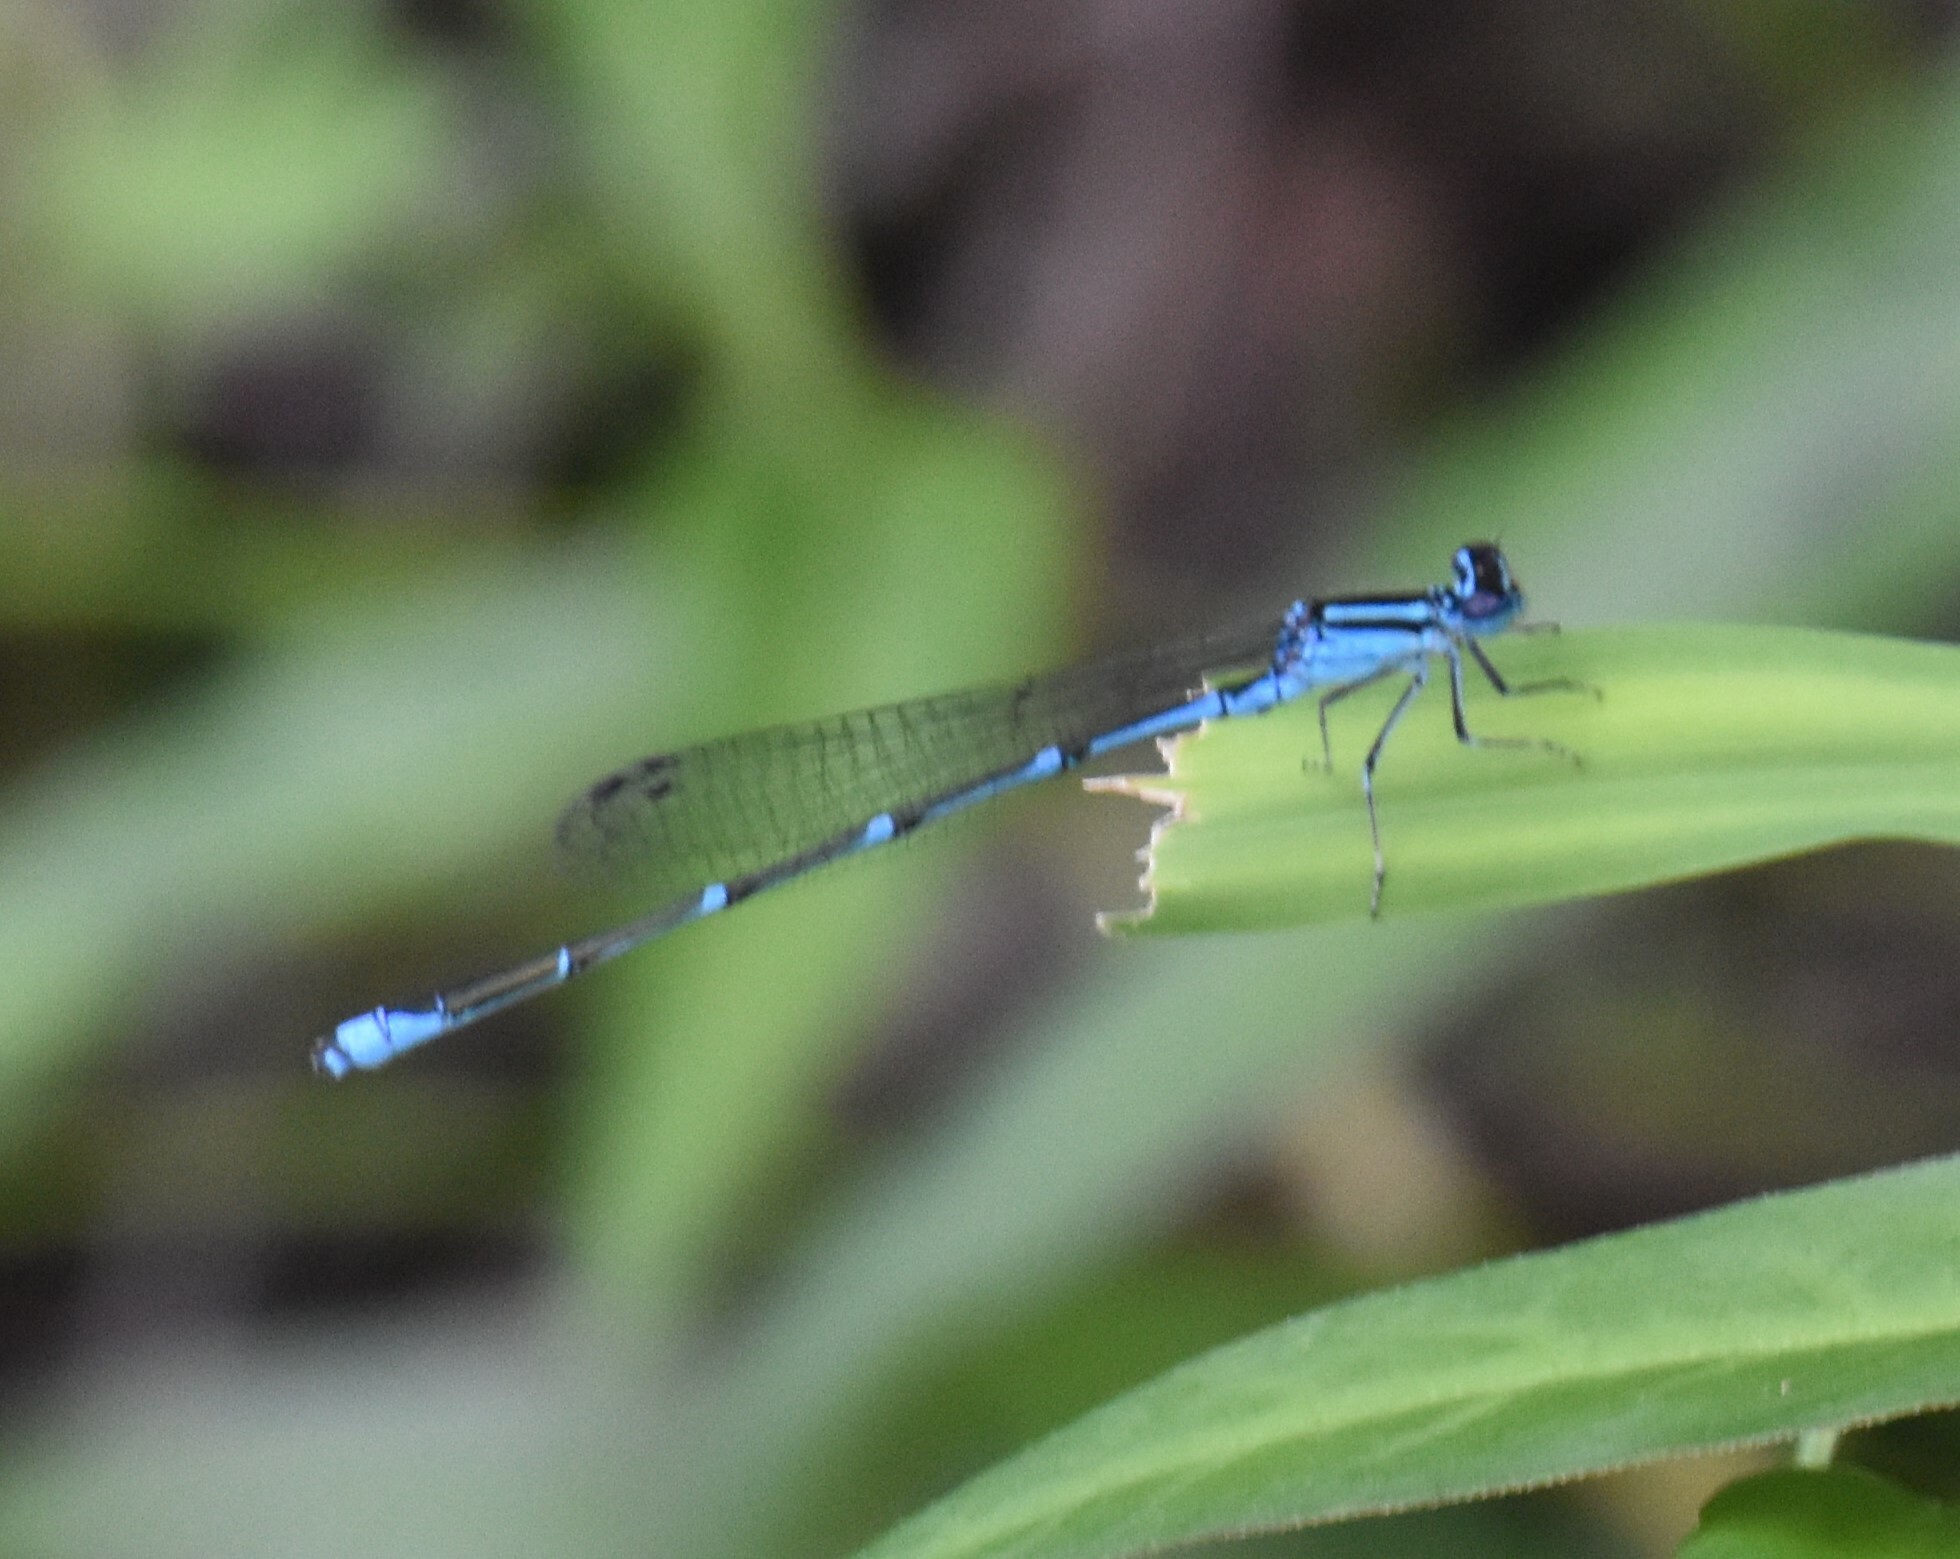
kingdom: Animalia
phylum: Arthropoda
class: Insecta
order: Odonata
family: Coenagrionidae
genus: Enallagma
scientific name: Enallagma exsulans
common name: Stream bluet
